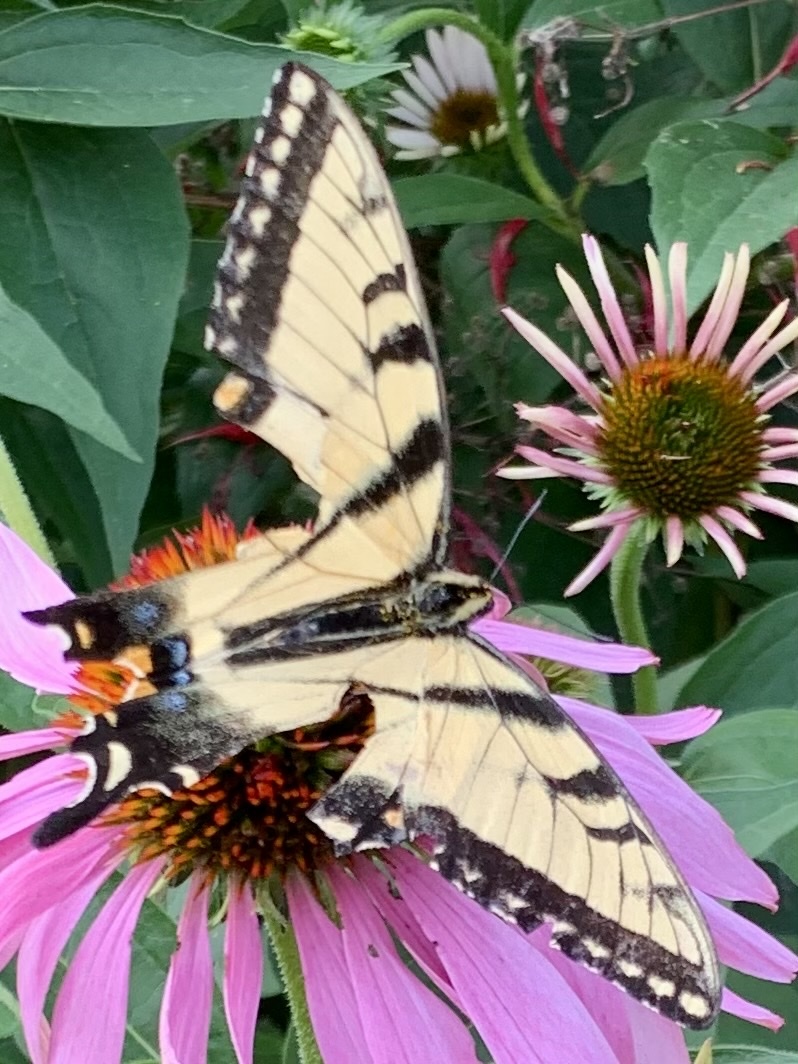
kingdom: Animalia
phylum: Arthropoda
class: Insecta
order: Lepidoptera
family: Papilionidae
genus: Papilio
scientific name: Papilio glaucus
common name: Tiger swallowtail
